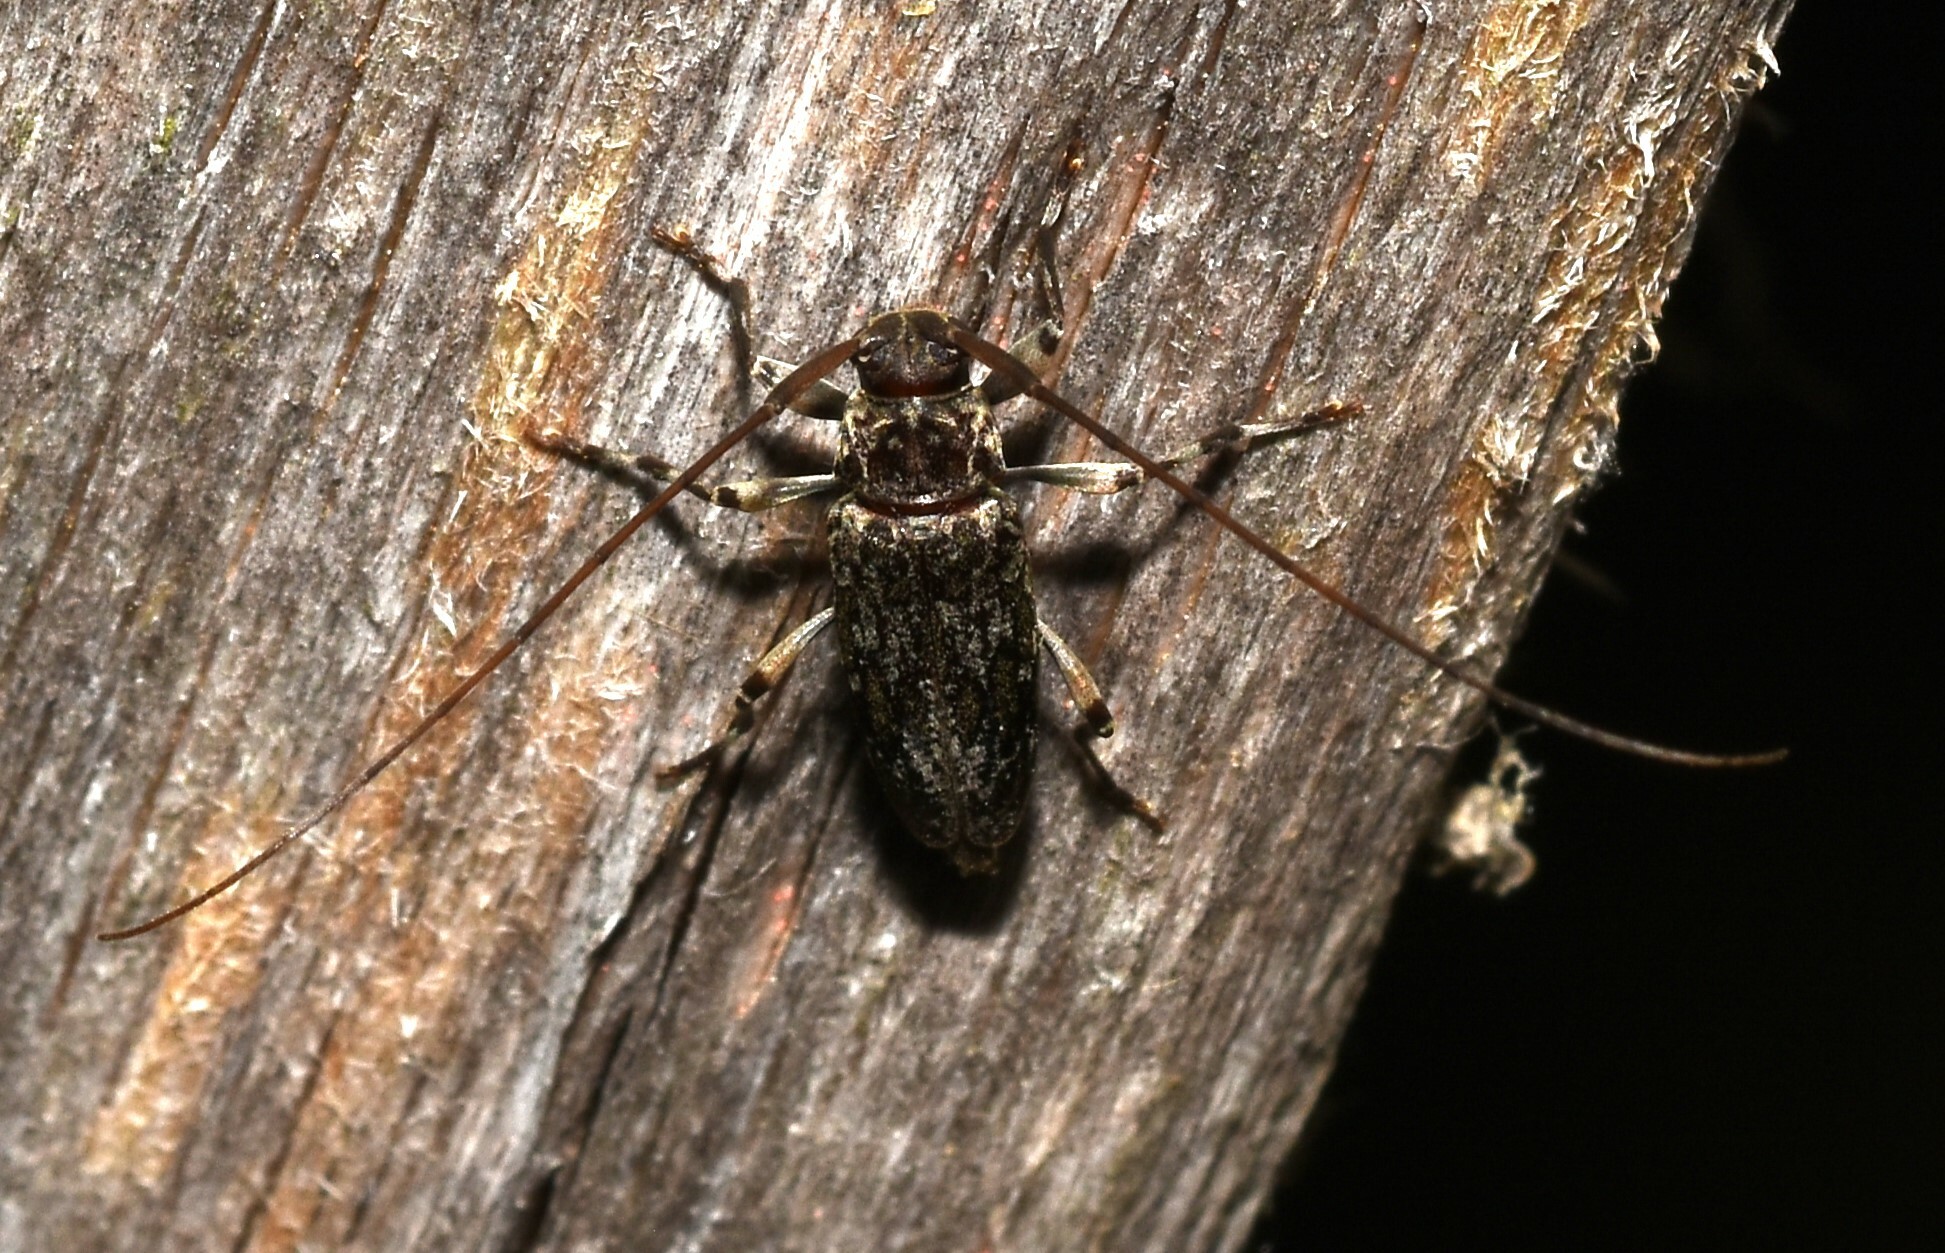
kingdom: Animalia
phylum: Arthropoda
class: Insecta
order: Coleoptera
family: Cerambycidae
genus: Lepturges
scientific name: Lepturges confluens
